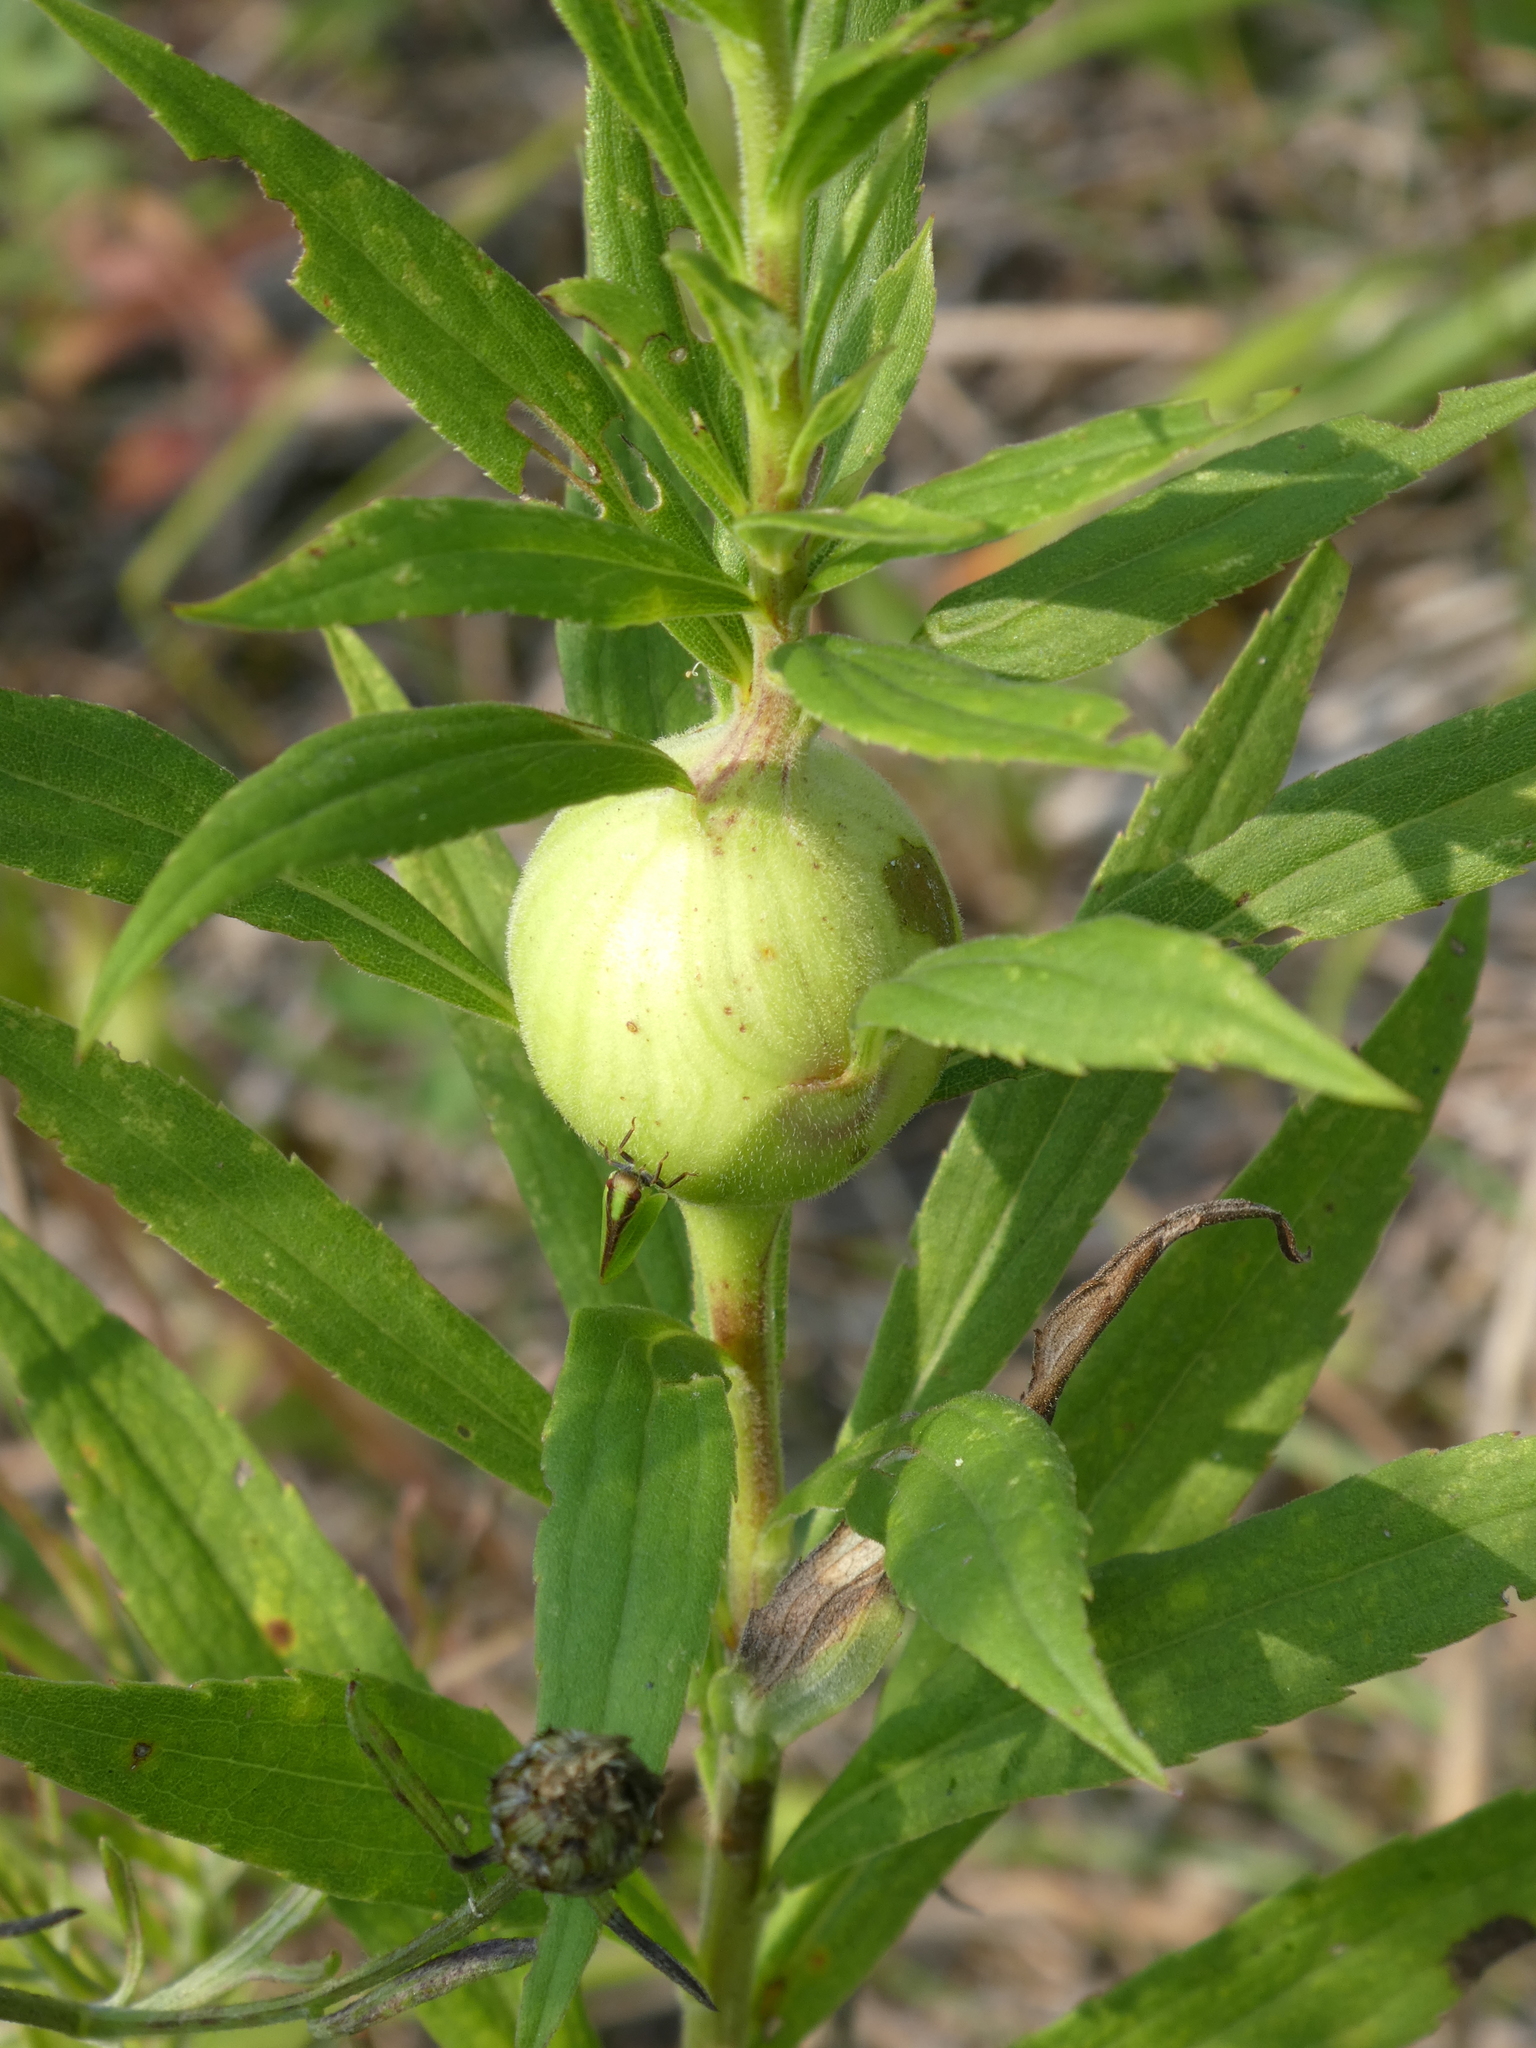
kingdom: Animalia
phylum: Arthropoda
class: Insecta
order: Diptera
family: Tephritidae
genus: Eurosta
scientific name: Eurosta solidaginis
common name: Goldenrod gall fly
